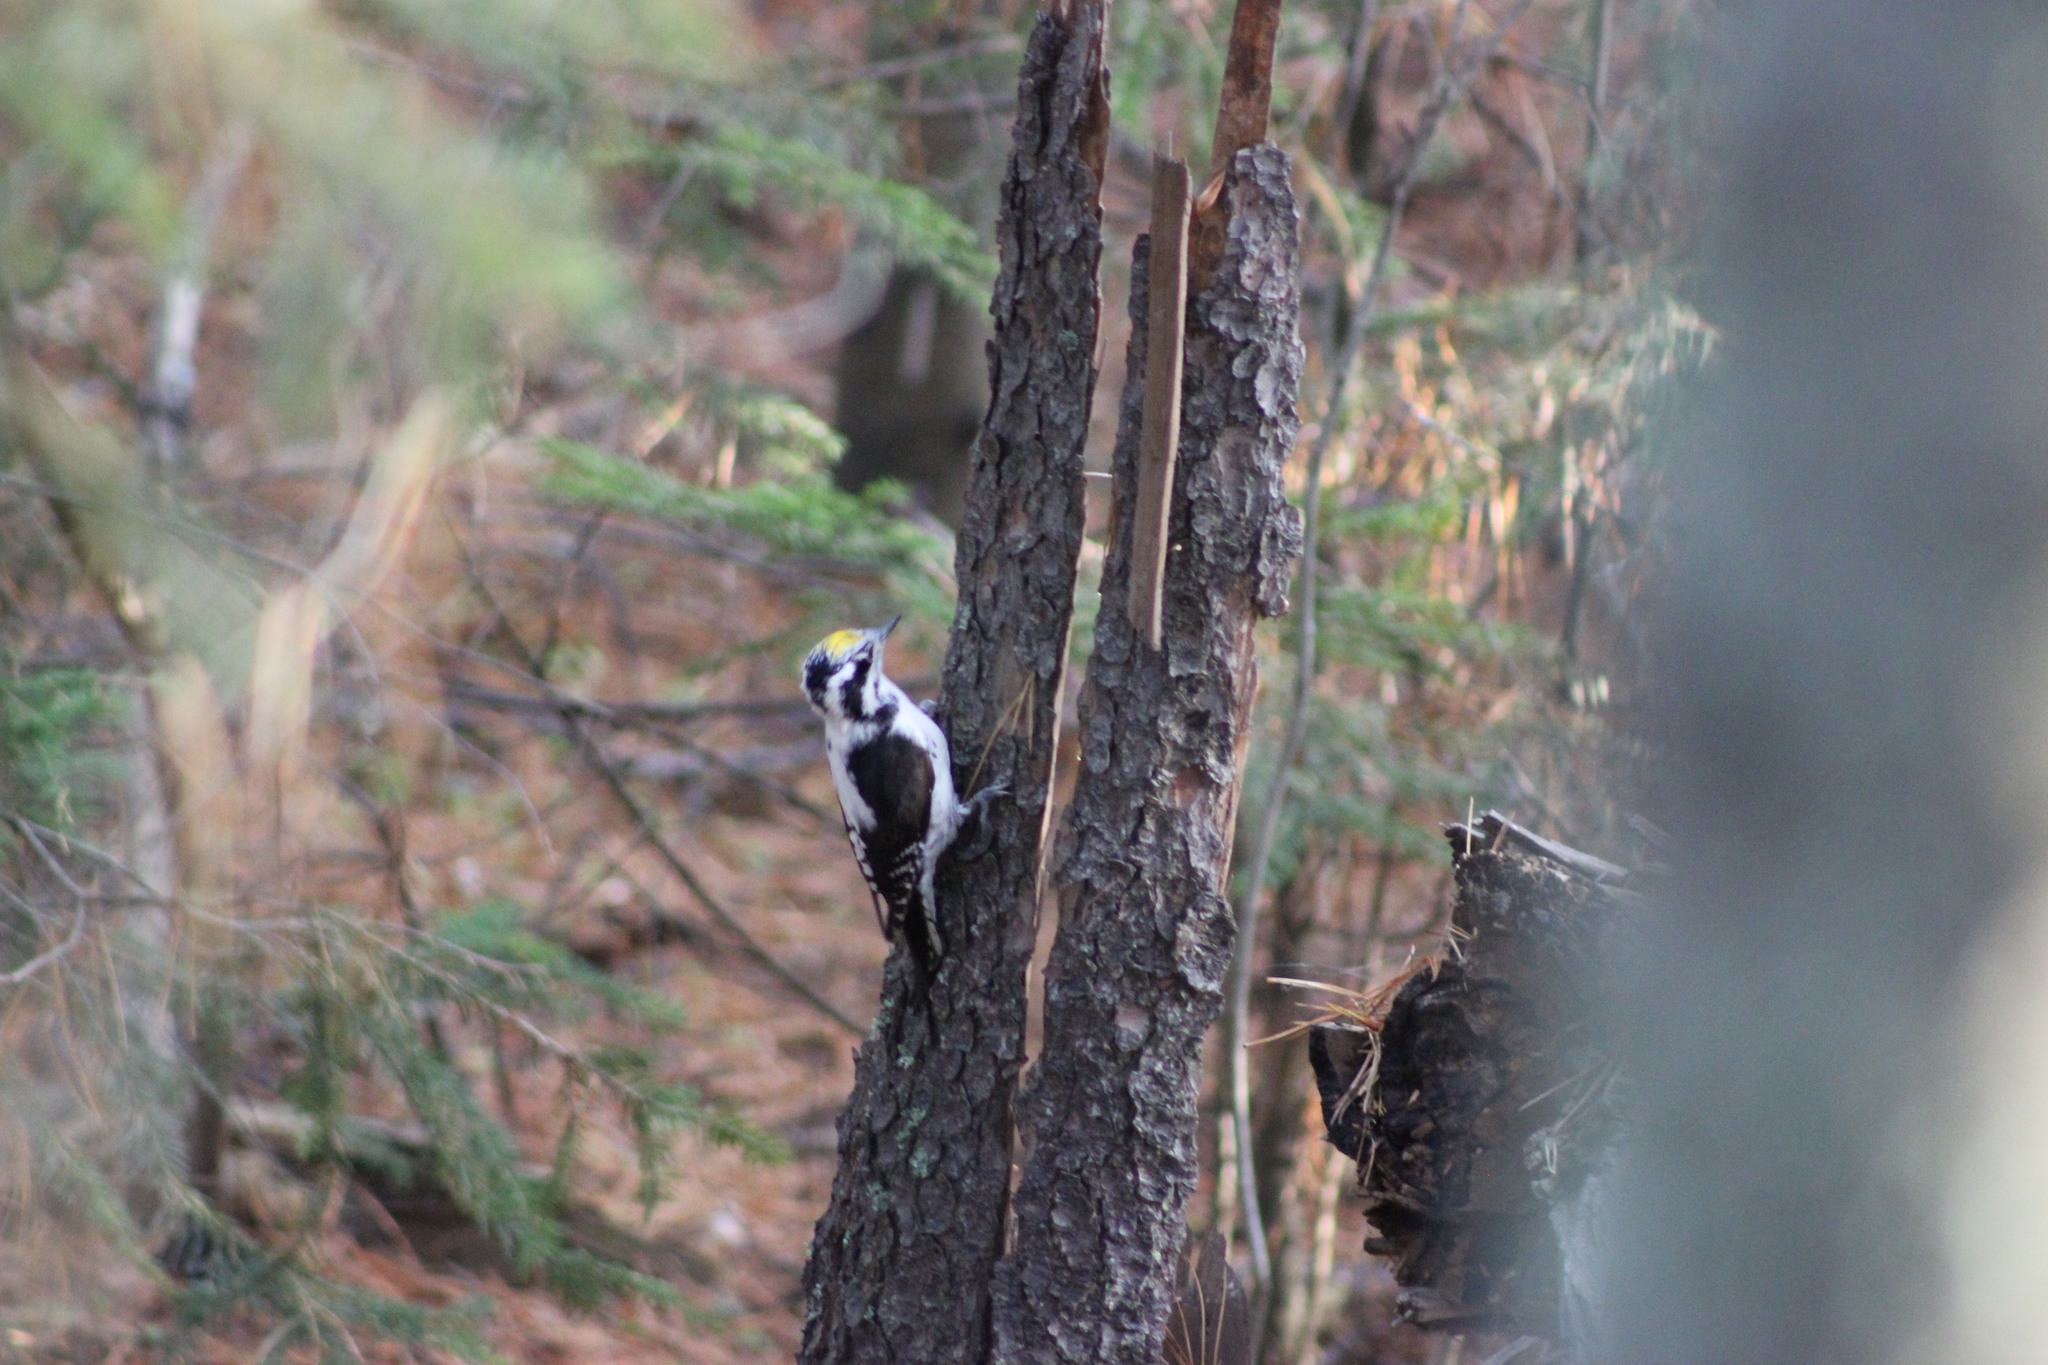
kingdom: Animalia
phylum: Chordata
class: Aves
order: Piciformes
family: Picidae
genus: Picoides
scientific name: Picoides tridactylus
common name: Eurasian three-toed woodpecker
